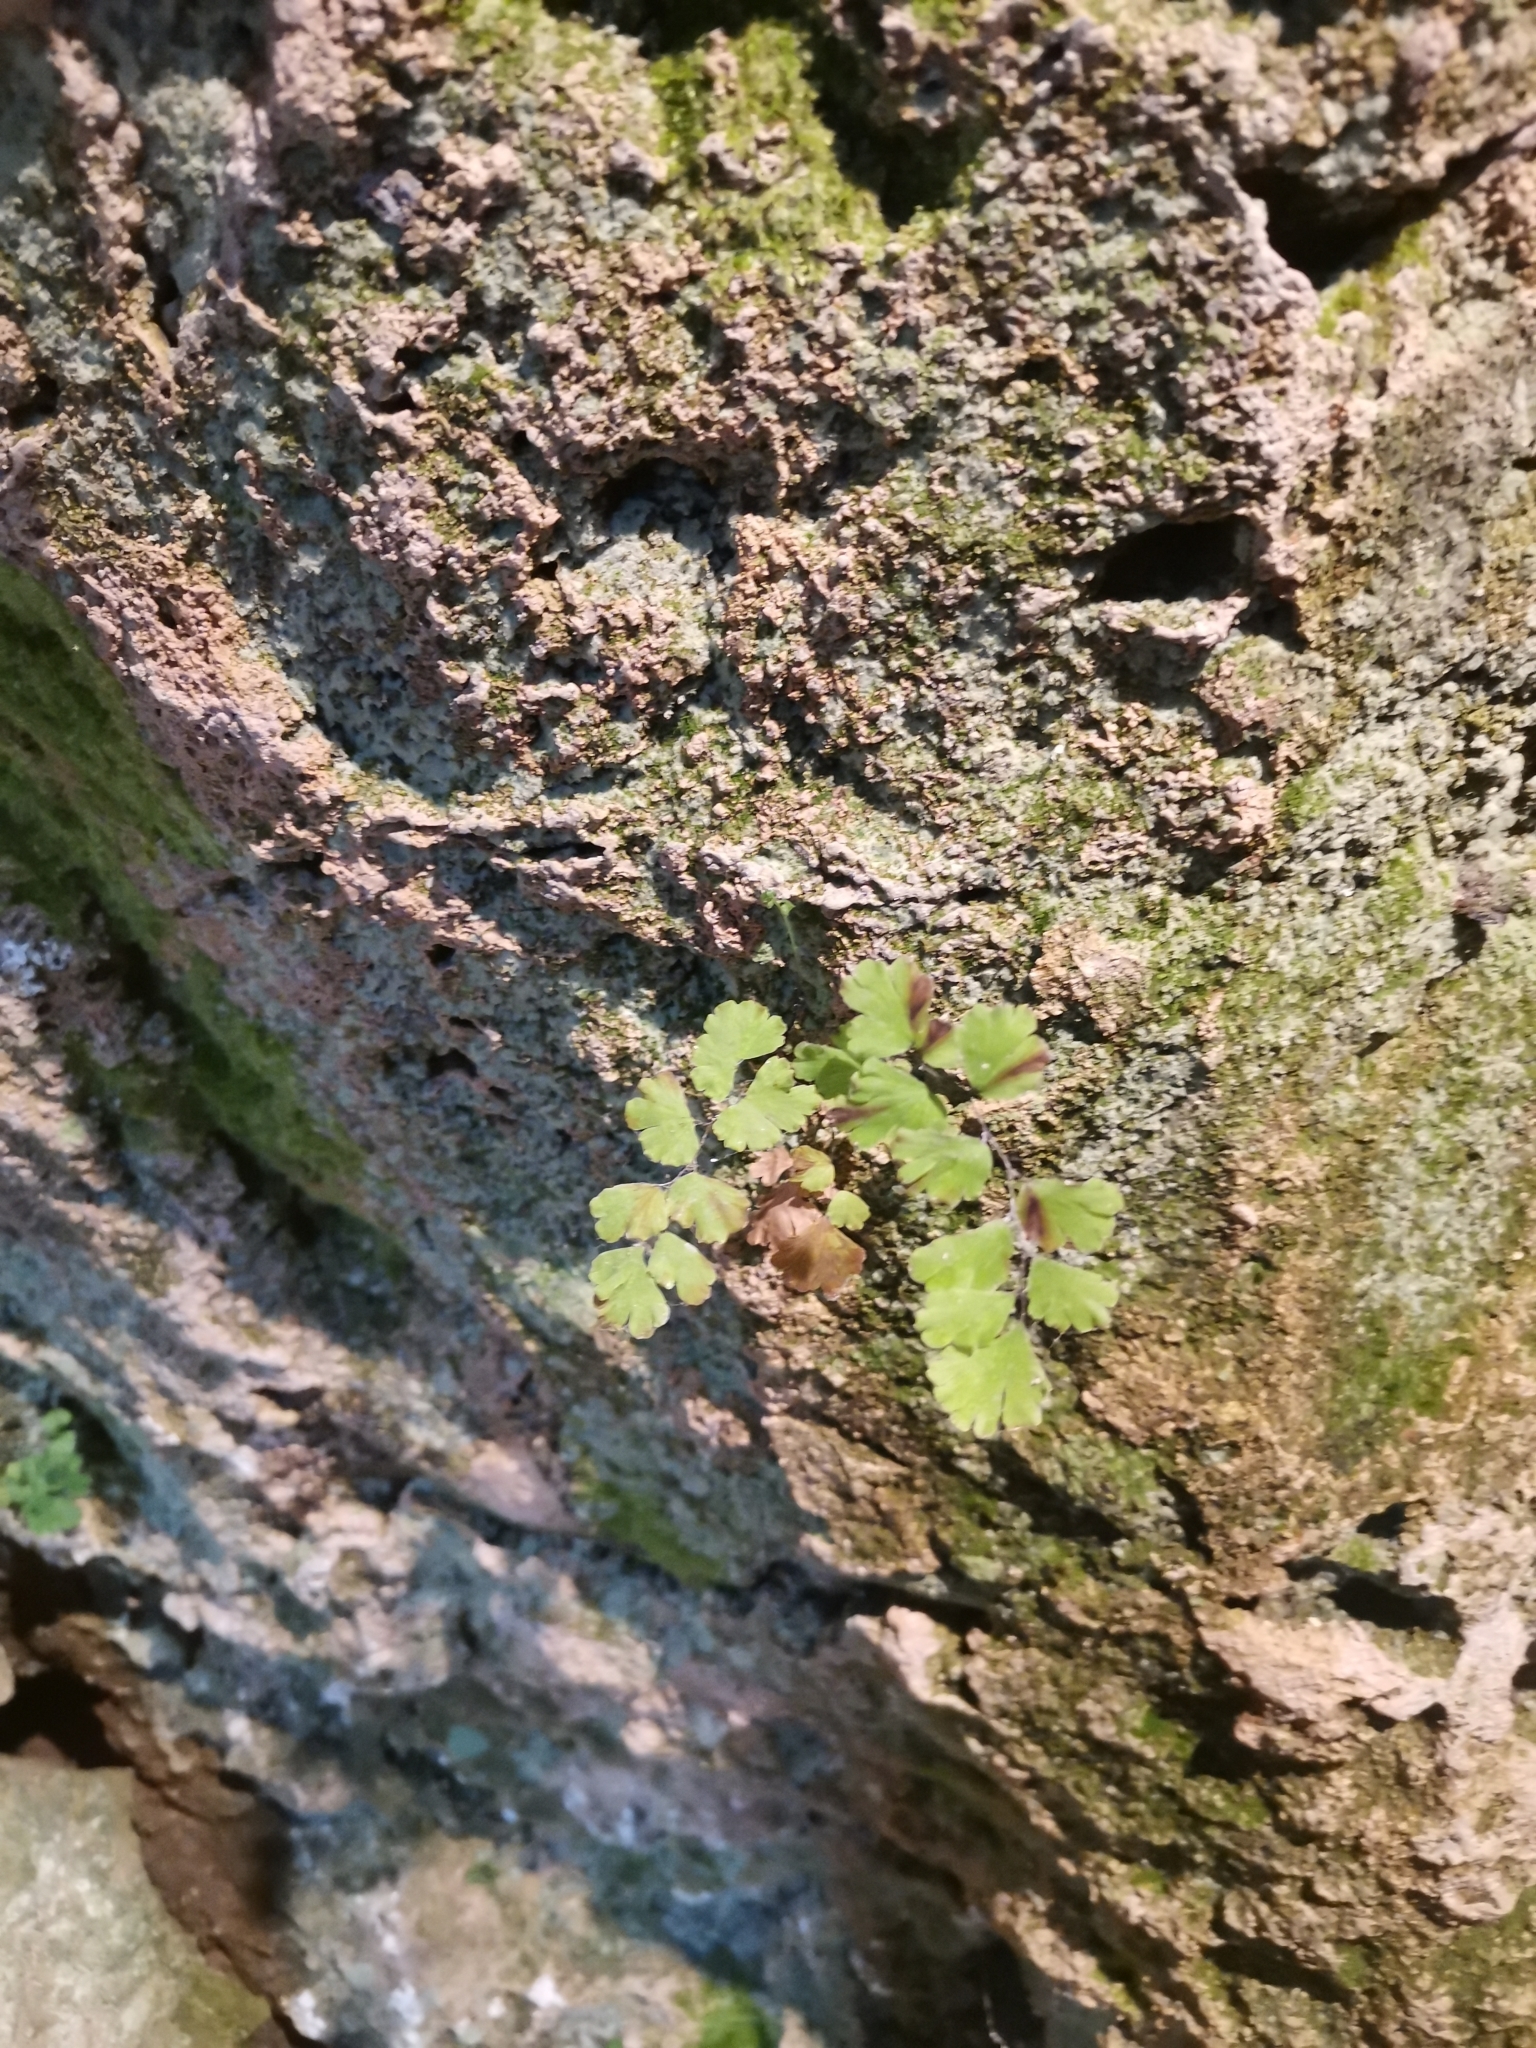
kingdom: Plantae
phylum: Tracheophyta
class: Polypodiopsida
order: Polypodiales
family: Pteridaceae
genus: Adiantum
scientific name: Adiantum capillus-veneris
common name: Maidenhair fern
